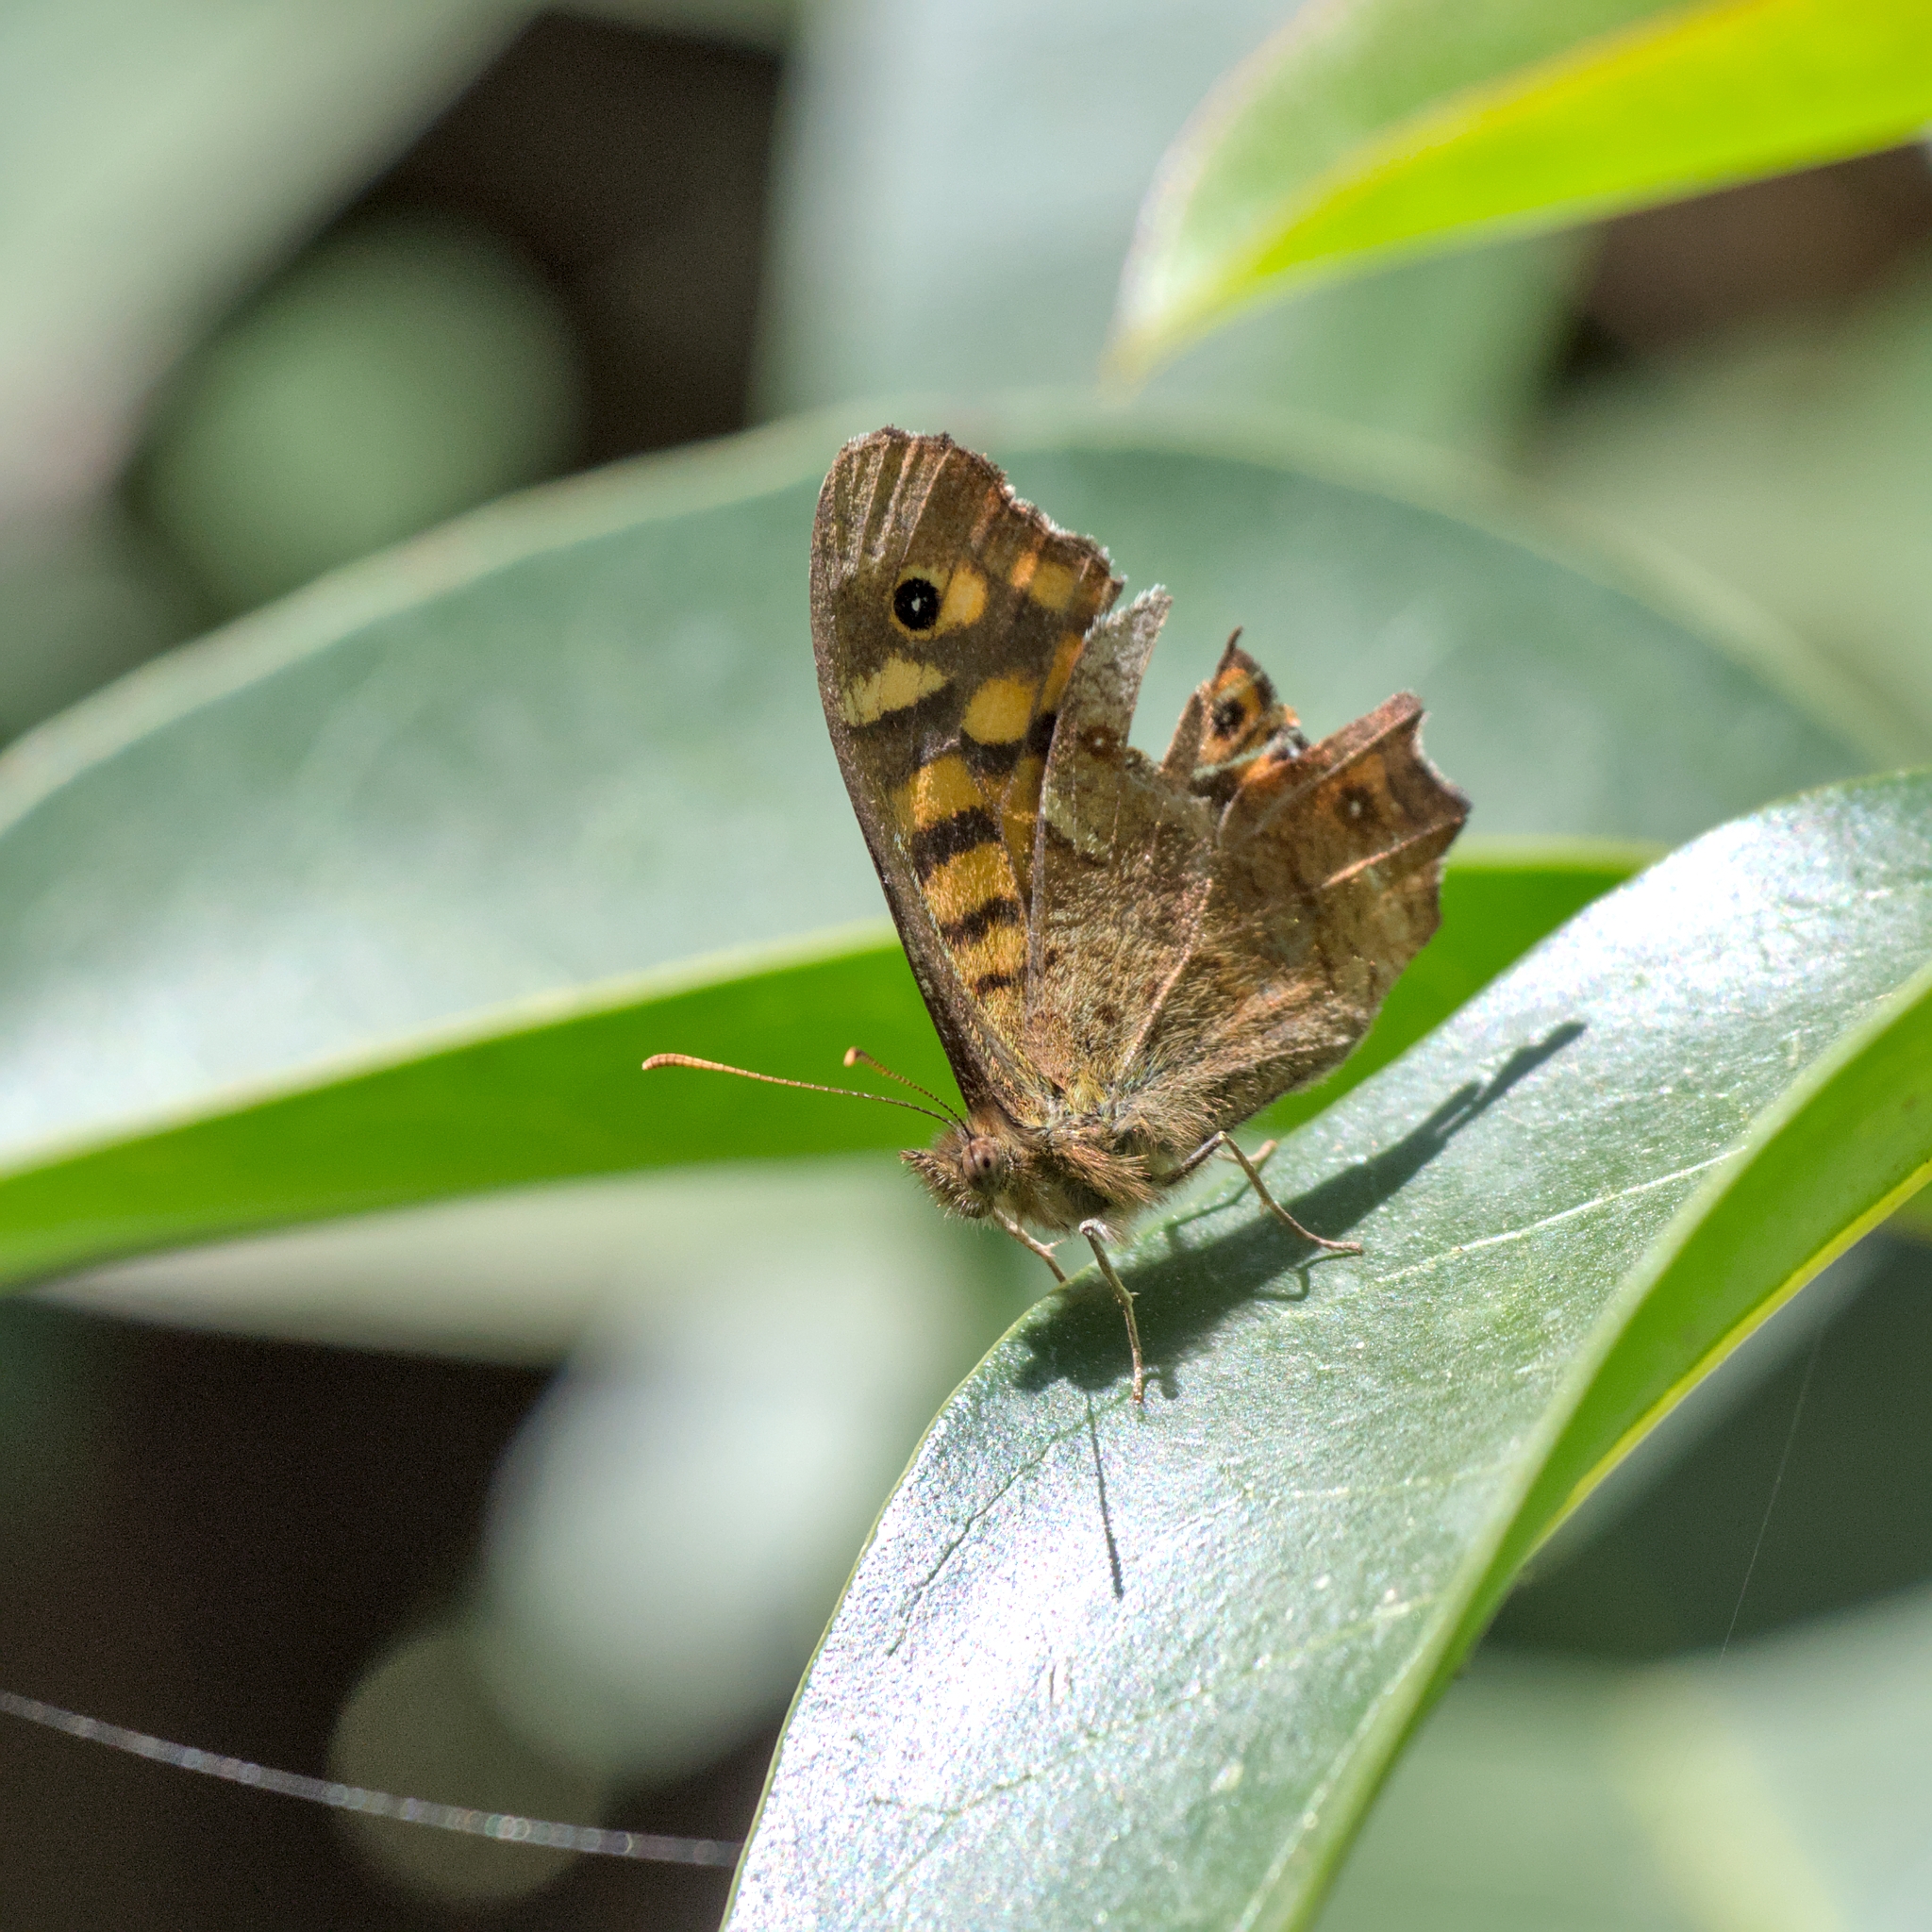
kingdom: Animalia
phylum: Arthropoda
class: Insecta
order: Lepidoptera
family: Nymphalidae
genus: Pararge
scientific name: Pararge aegeria
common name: Speckled wood
